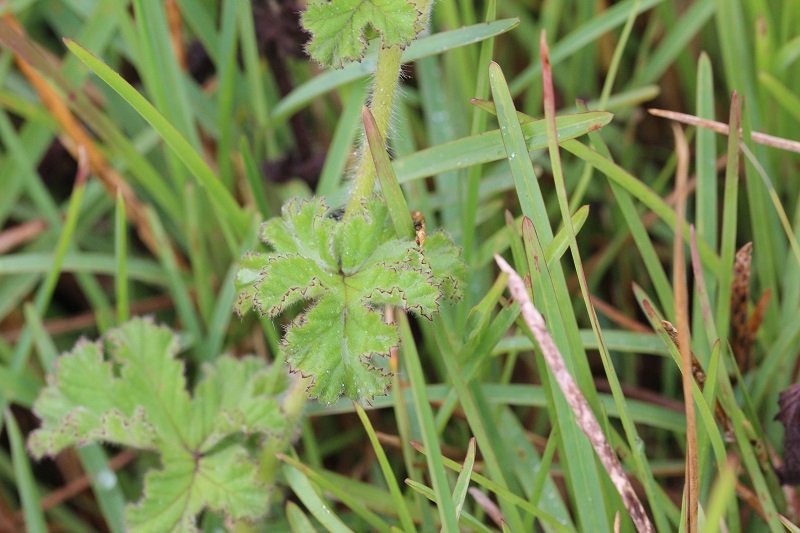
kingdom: Plantae
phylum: Tracheophyta
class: Magnoliopsida
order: Geraniales
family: Geraniaceae
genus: Pelargonium
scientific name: Pelargonium capitatum
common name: Rose scented geranium
